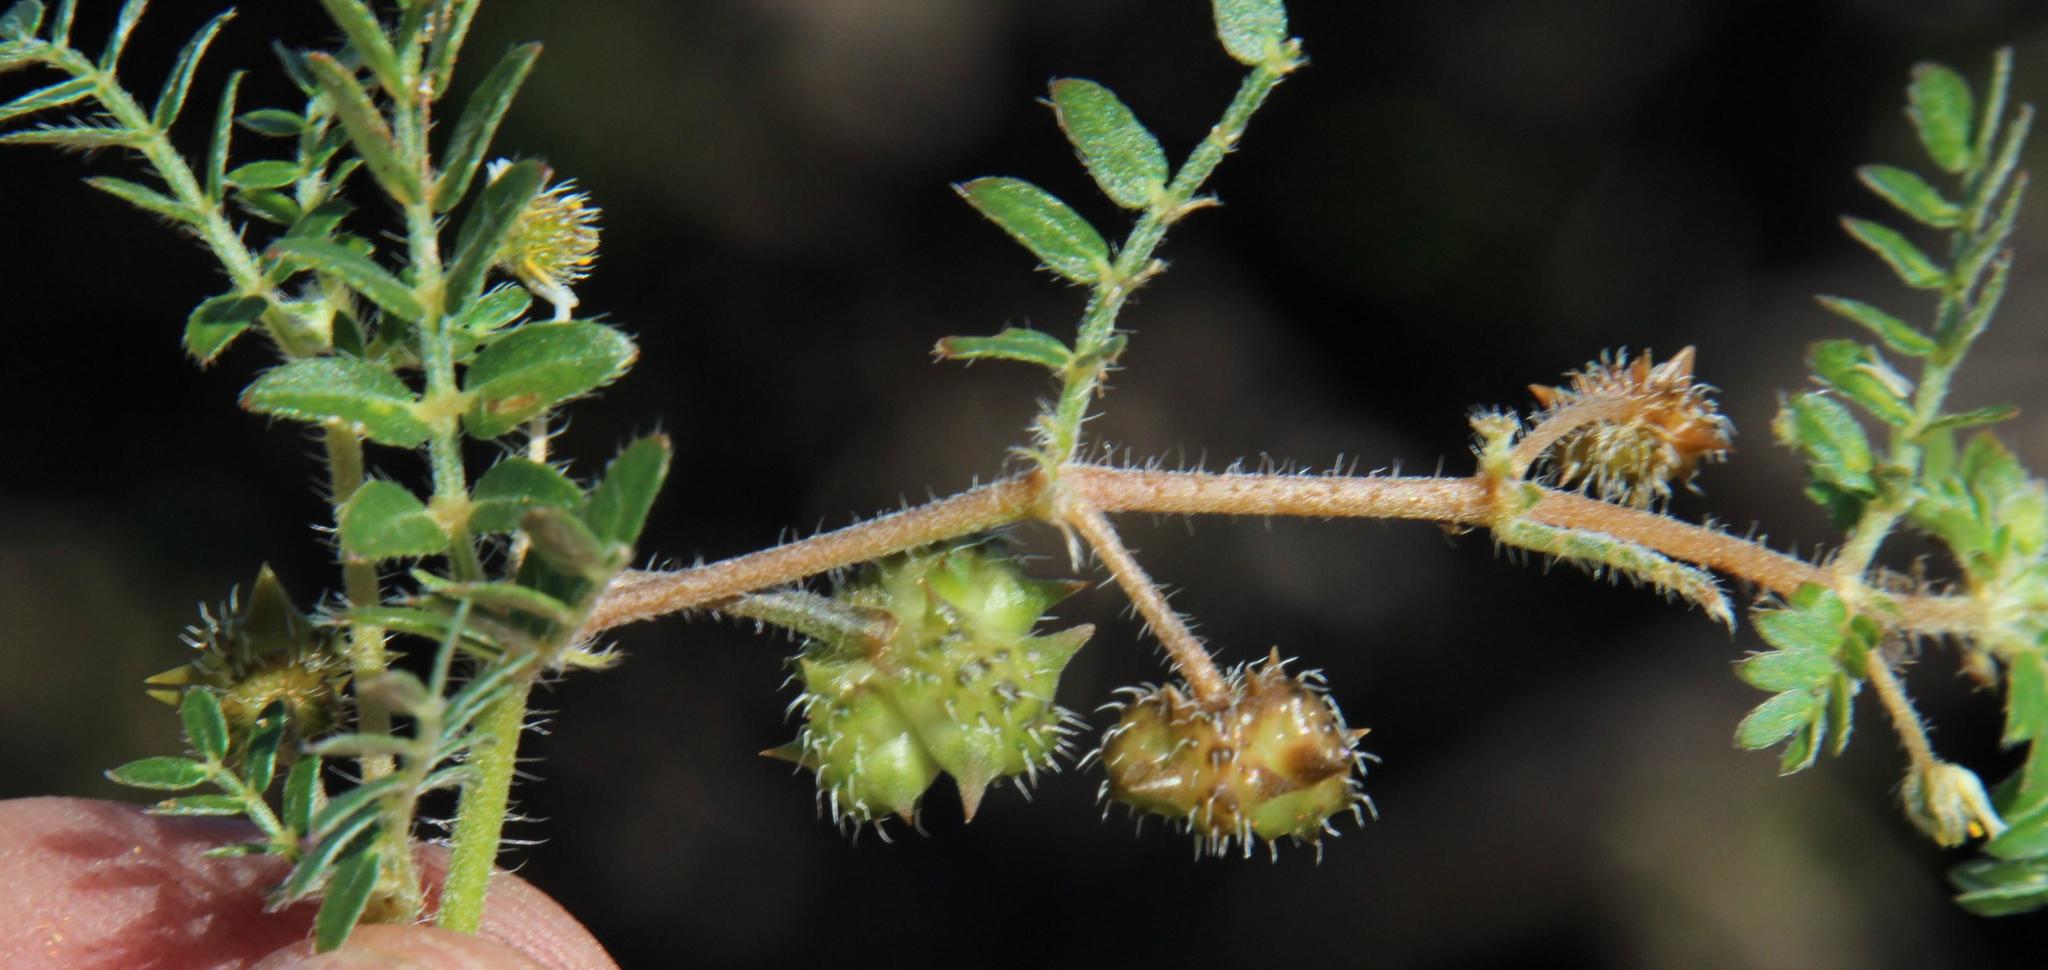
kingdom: Plantae
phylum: Tracheophyta
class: Magnoliopsida
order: Zygophyllales
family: Zygophyllaceae
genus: Tribulus
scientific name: Tribulus terrestris
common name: Puncturevine
